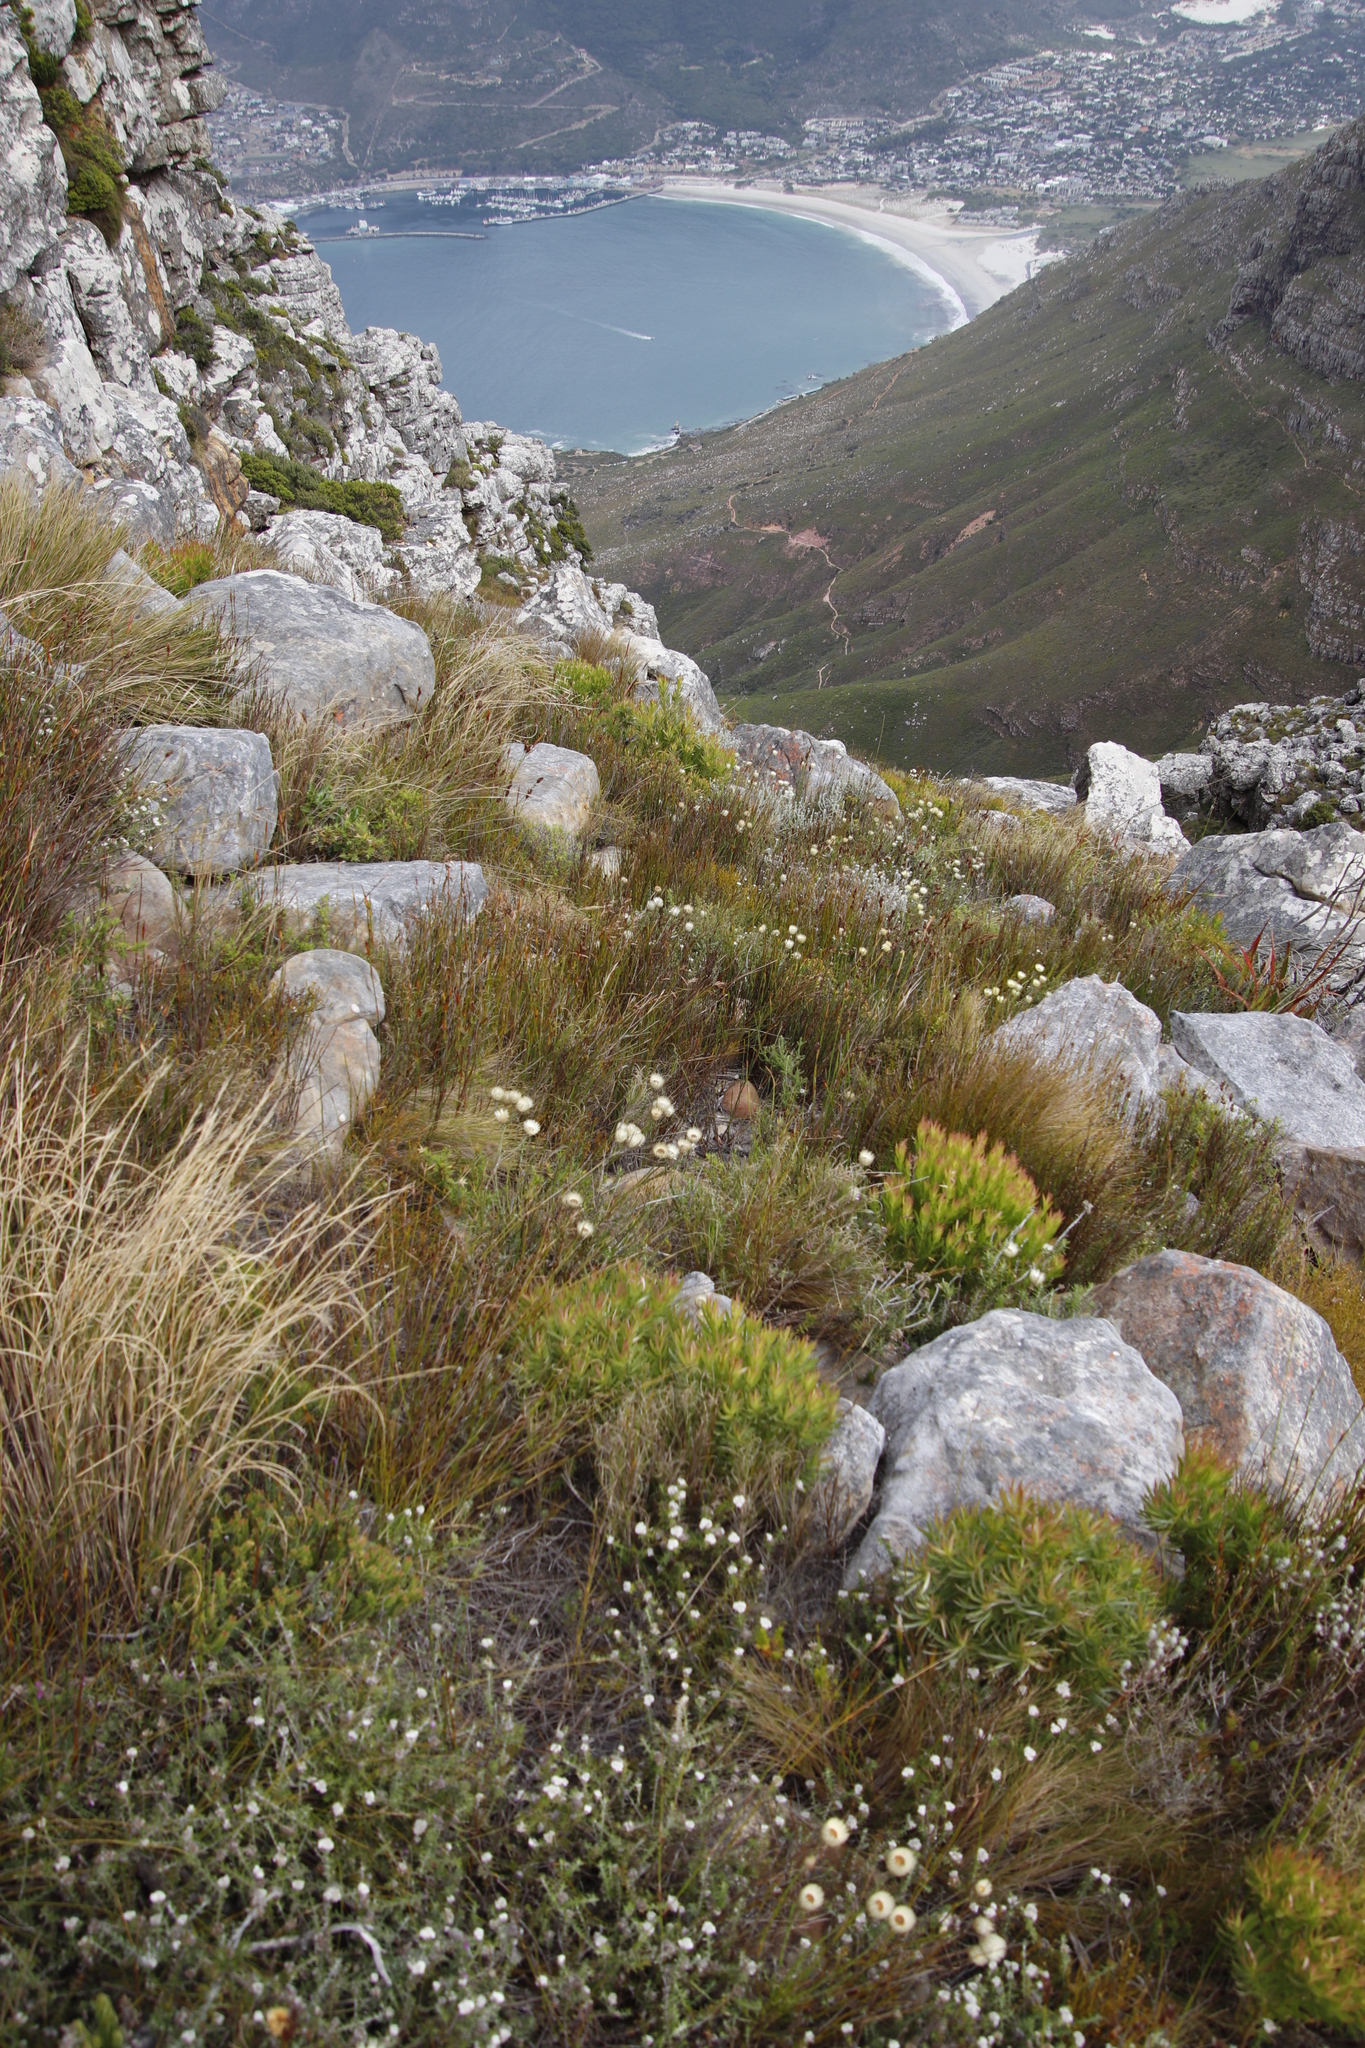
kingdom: Plantae
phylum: Tracheophyta
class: Magnoliopsida
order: Asterales
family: Asteraceae
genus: Edmondia
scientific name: Edmondia sesamoides
